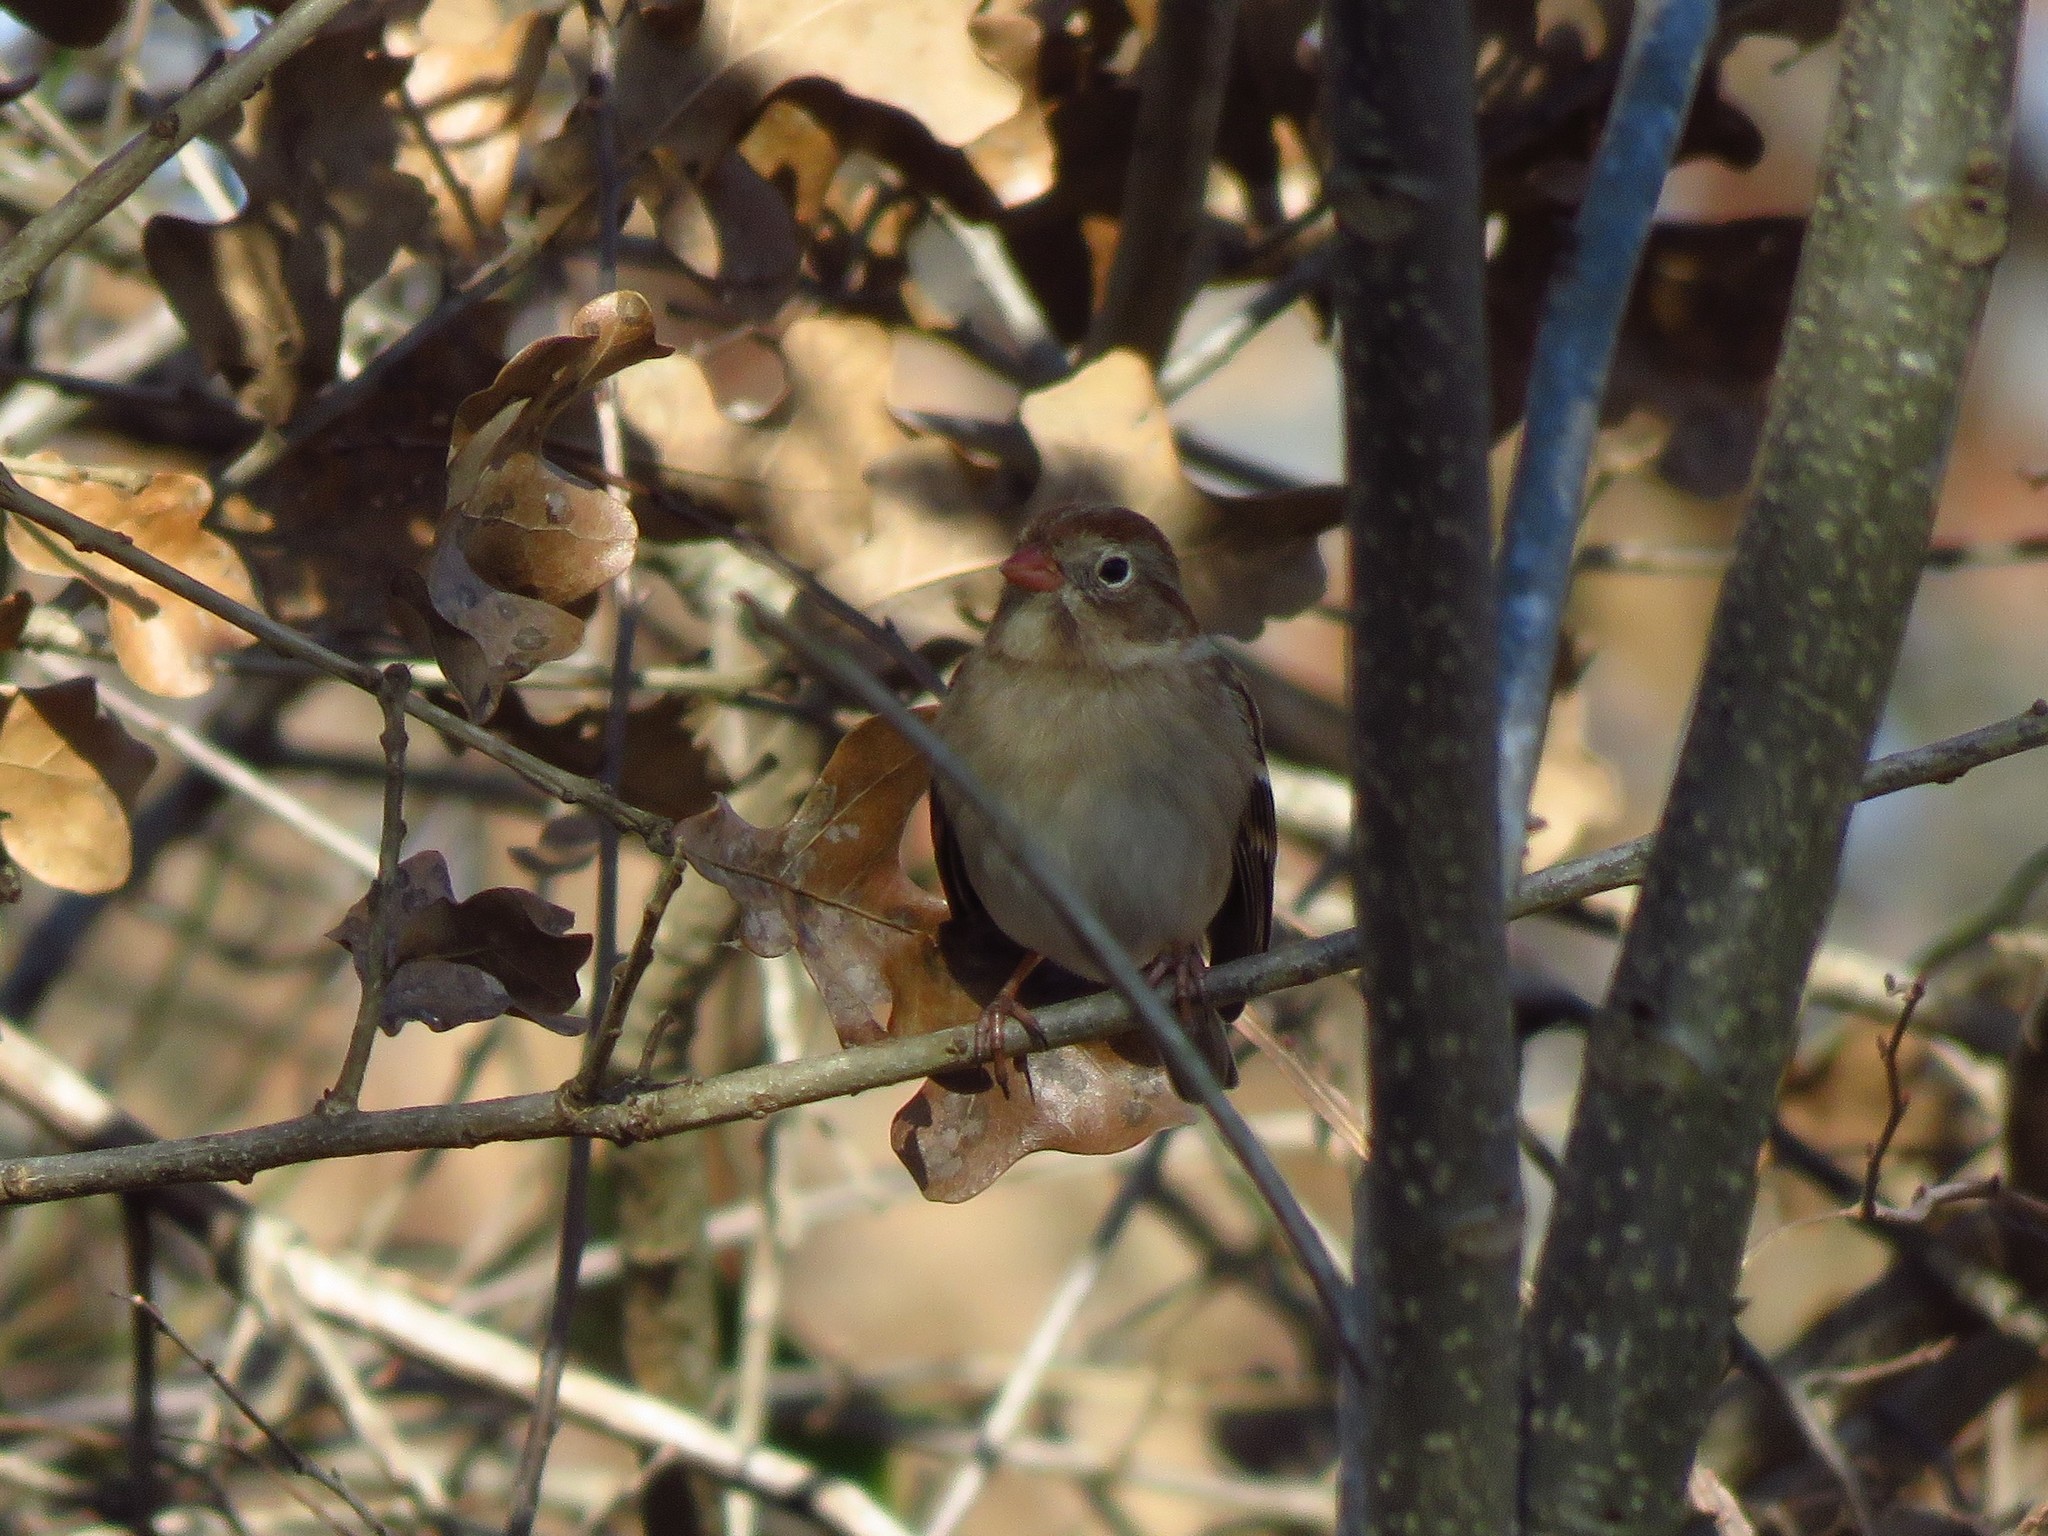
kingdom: Animalia
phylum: Chordata
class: Aves
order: Passeriformes
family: Passerellidae
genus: Spizella
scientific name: Spizella pusilla
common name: Field sparrow
